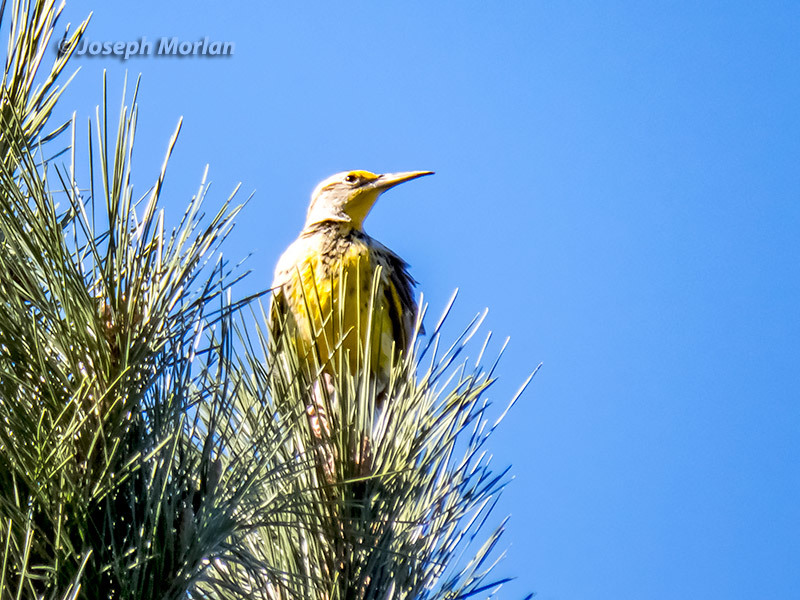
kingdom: Animalia
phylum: Chordata
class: Aves
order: Passeriformes
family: Icteridae
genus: Sturnella
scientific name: Sturnella neglecta
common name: Western meadowlark
